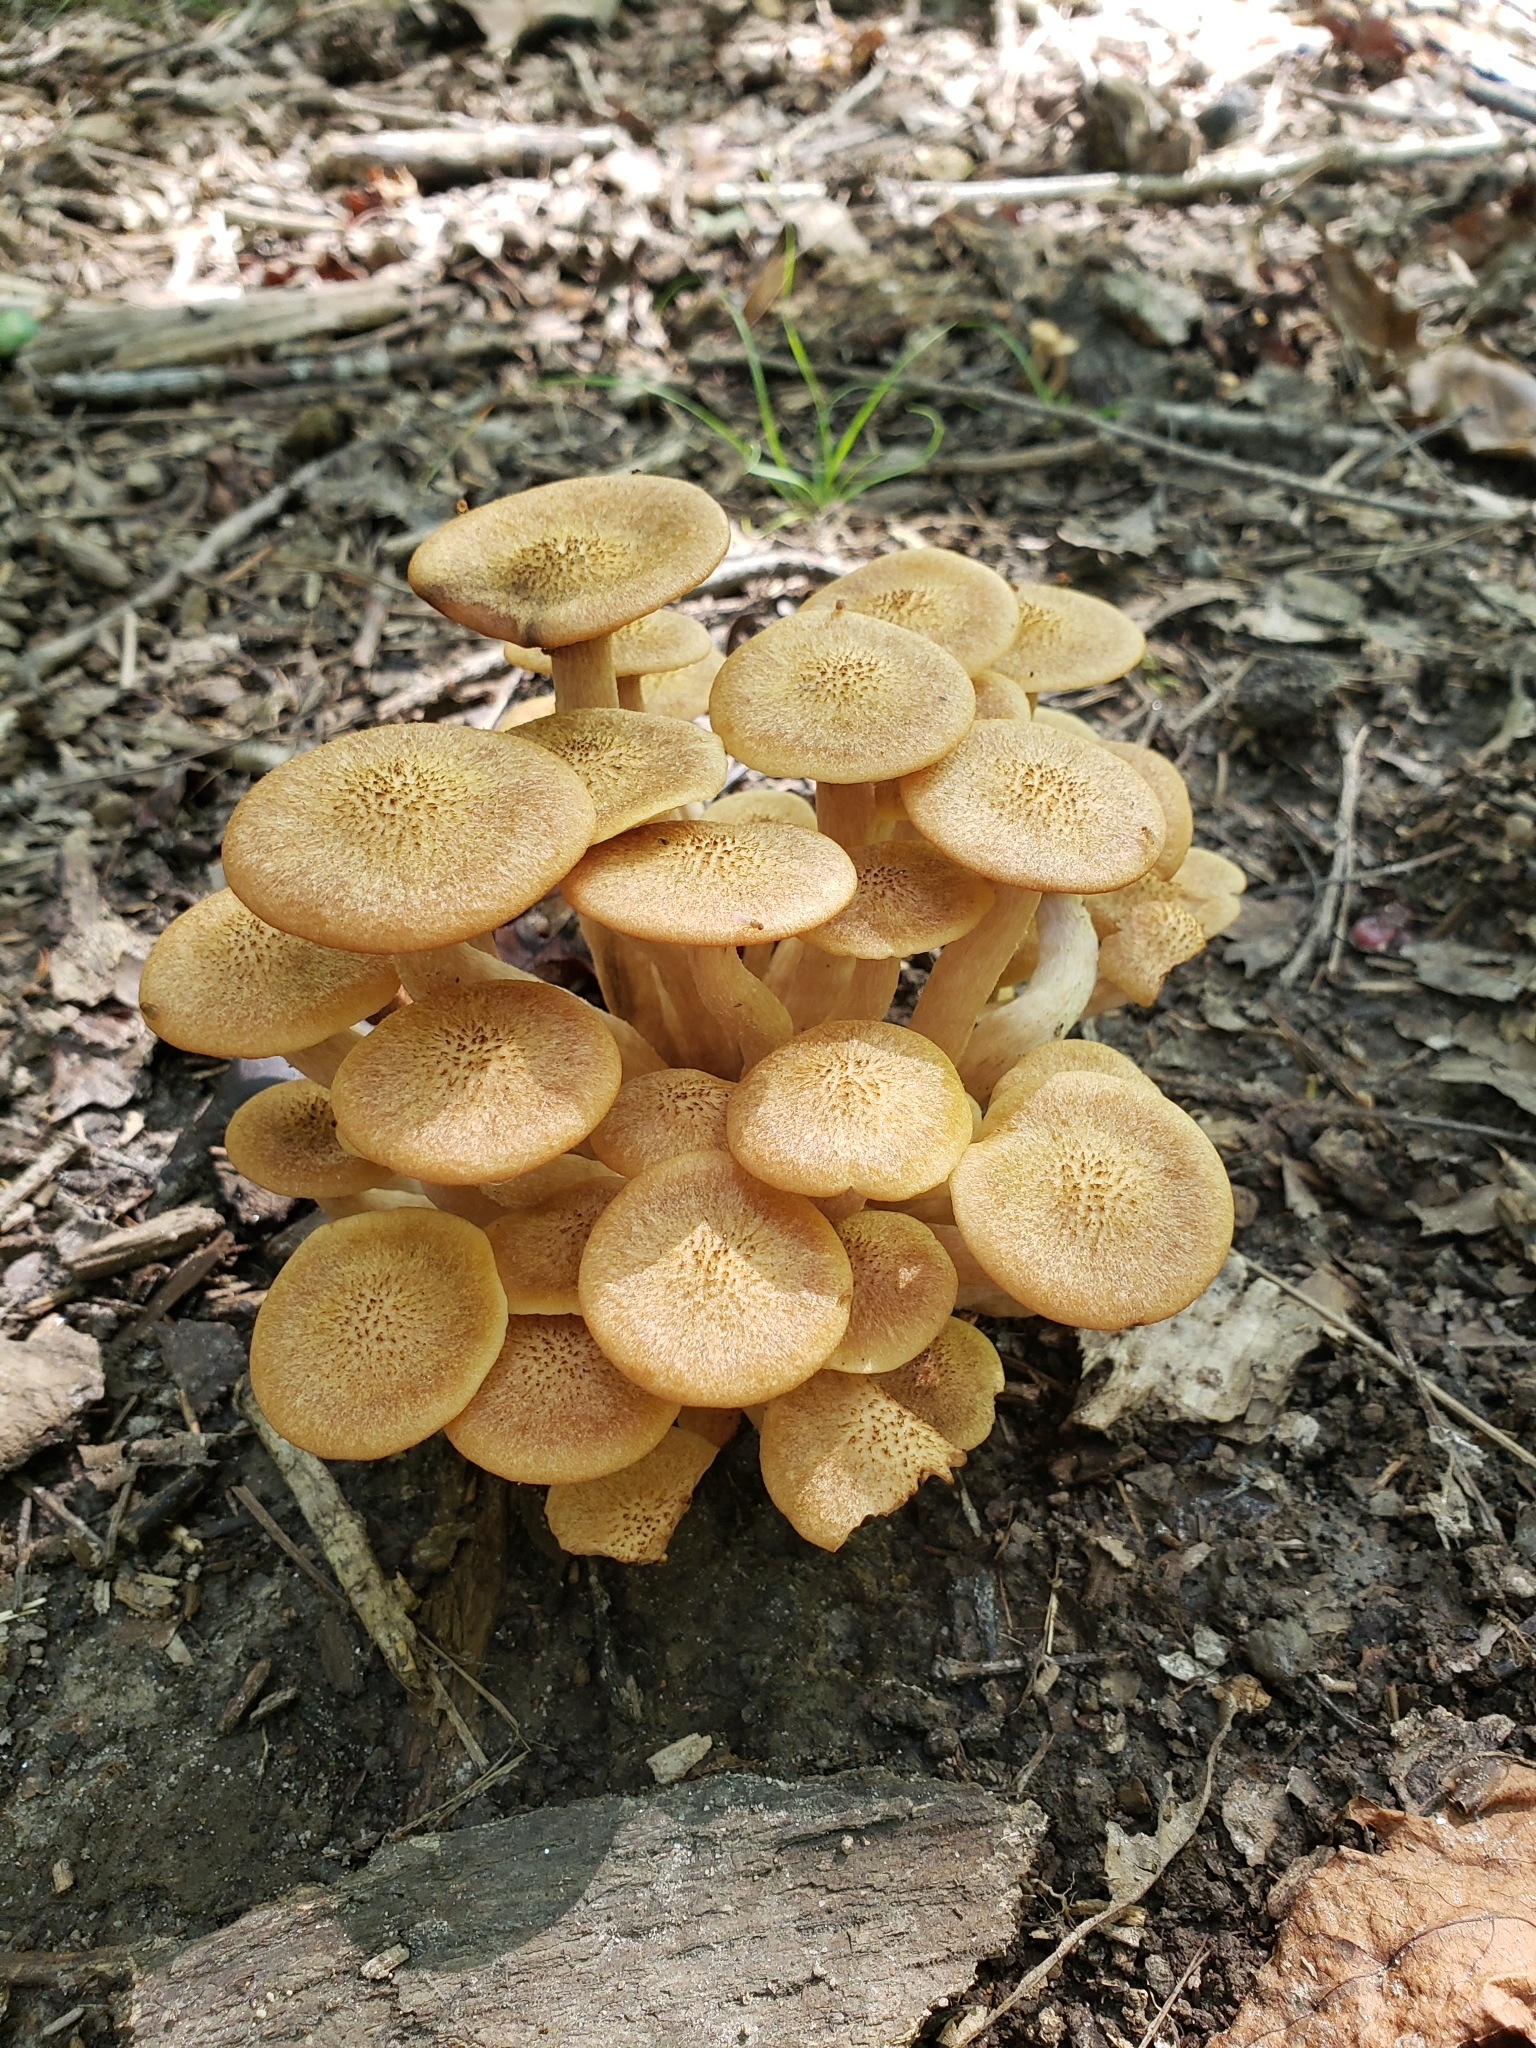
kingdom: Fungi
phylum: Basidiomycota
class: Agaricomycetes
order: Agaricales
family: Physalacriaceae
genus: Desarmillaria
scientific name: Desarmillaria caespitosa
